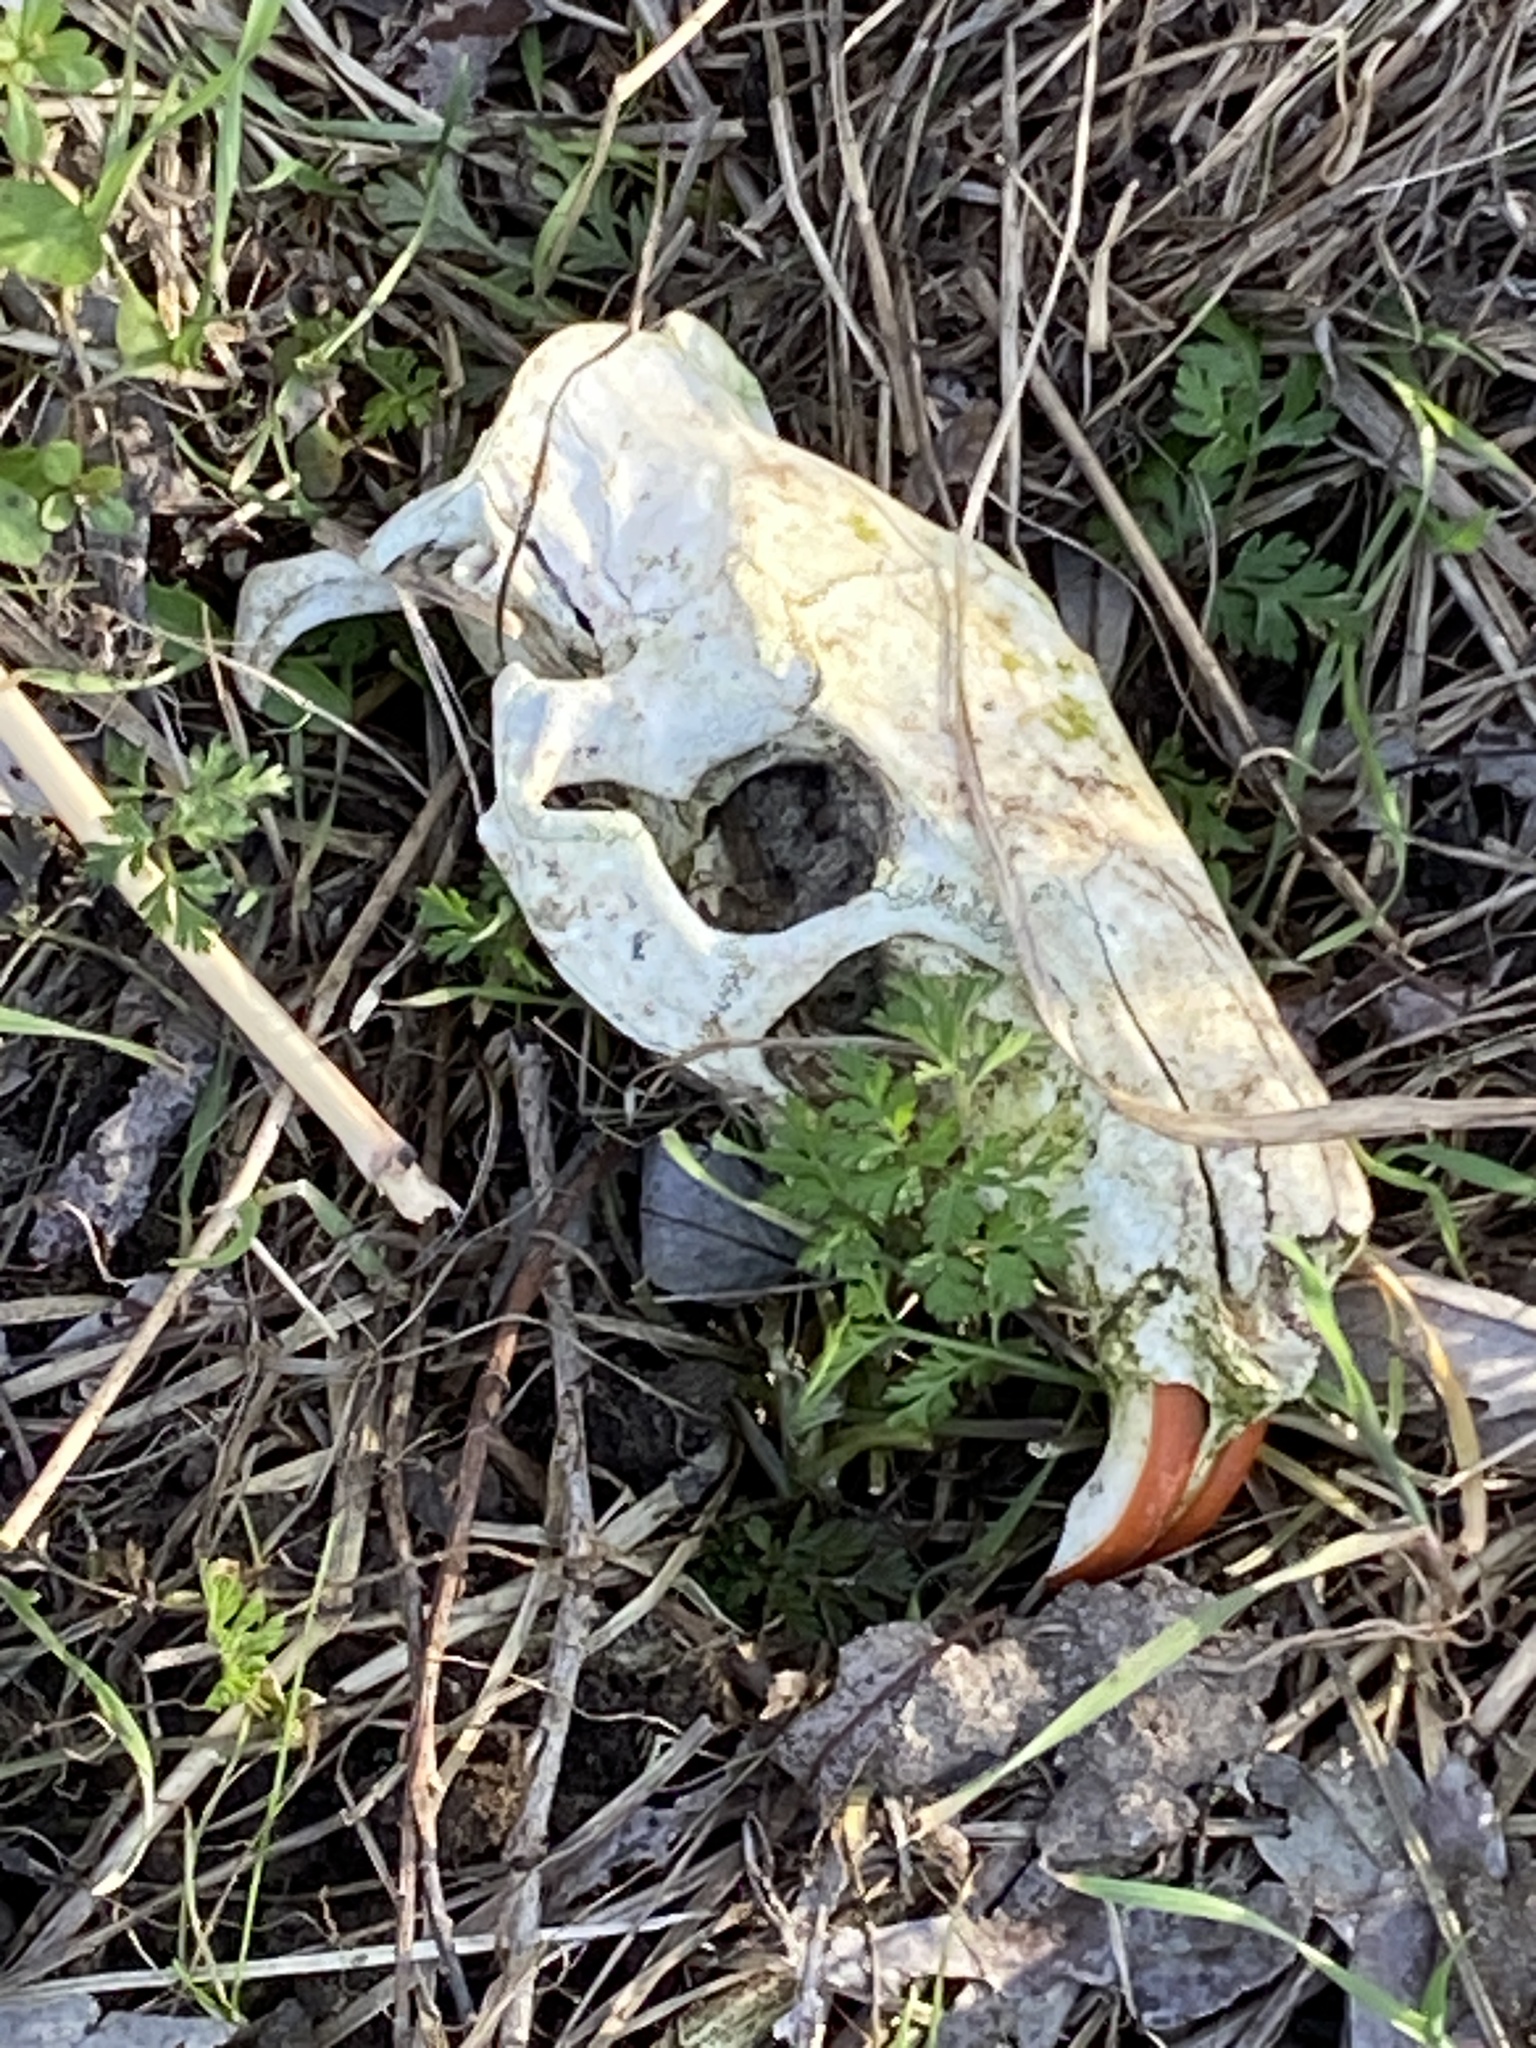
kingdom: Animalia
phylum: Chordata
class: Mammalia
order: Rodentia
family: Myocastoridae
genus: Myocastor
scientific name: Myocastor coypus
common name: Coypu
